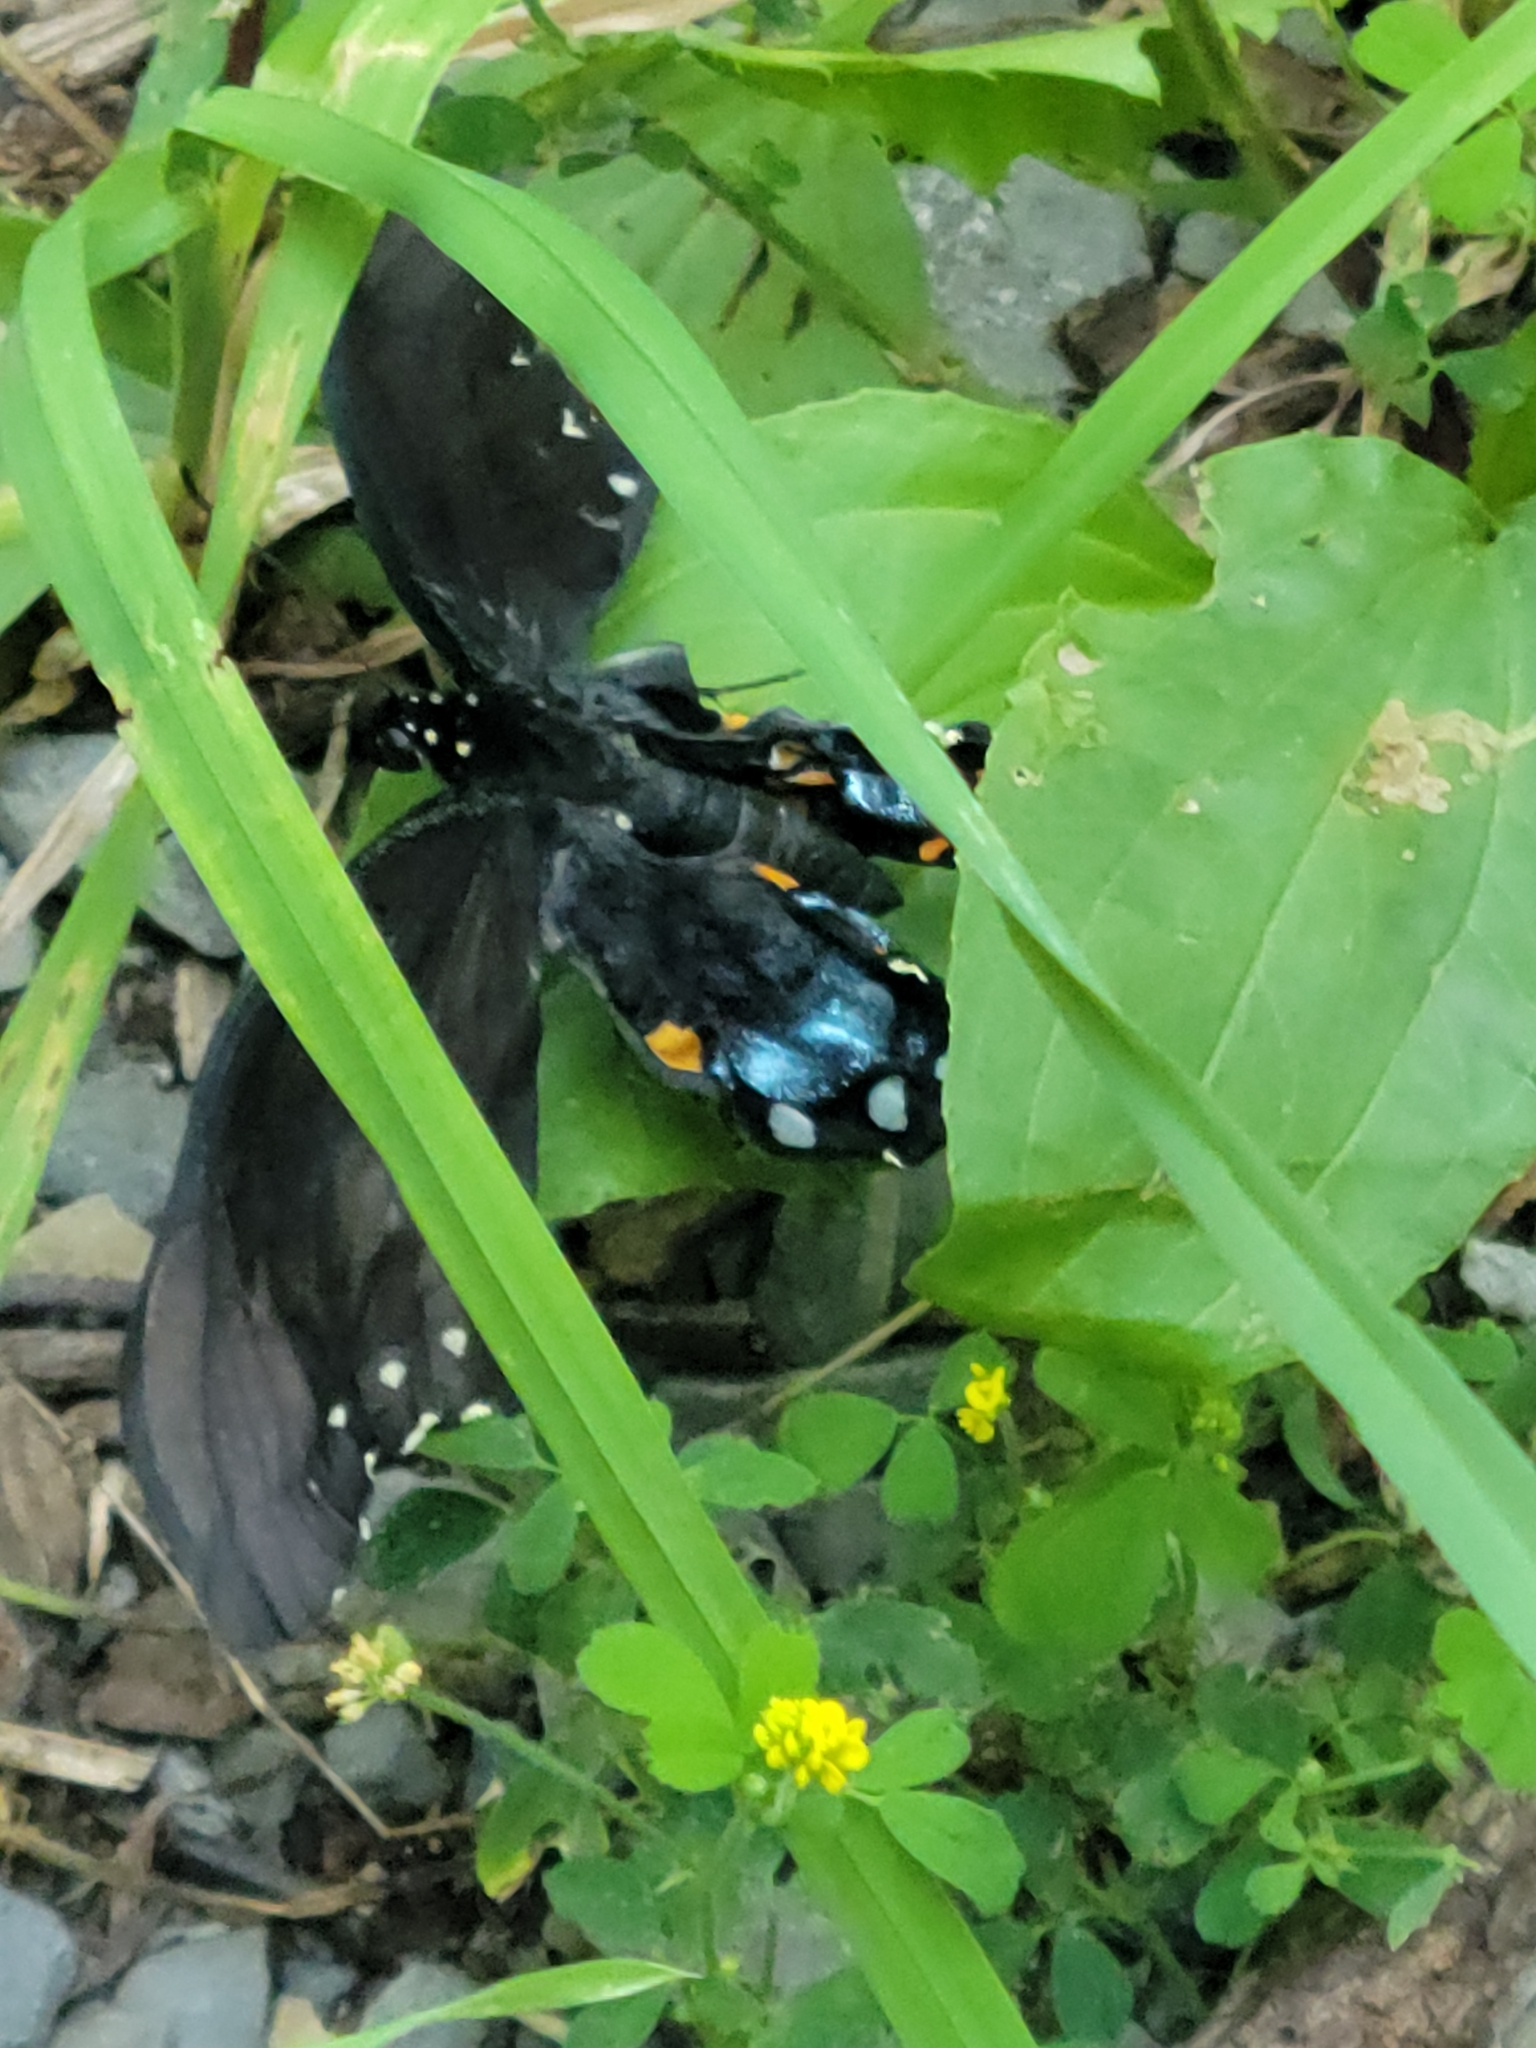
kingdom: Animalia
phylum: Arthropoda
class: Insecta
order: Lepidoptera
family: Papilionidae
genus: Papilio
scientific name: Papilio troilus
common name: Spicebush swallowtail
